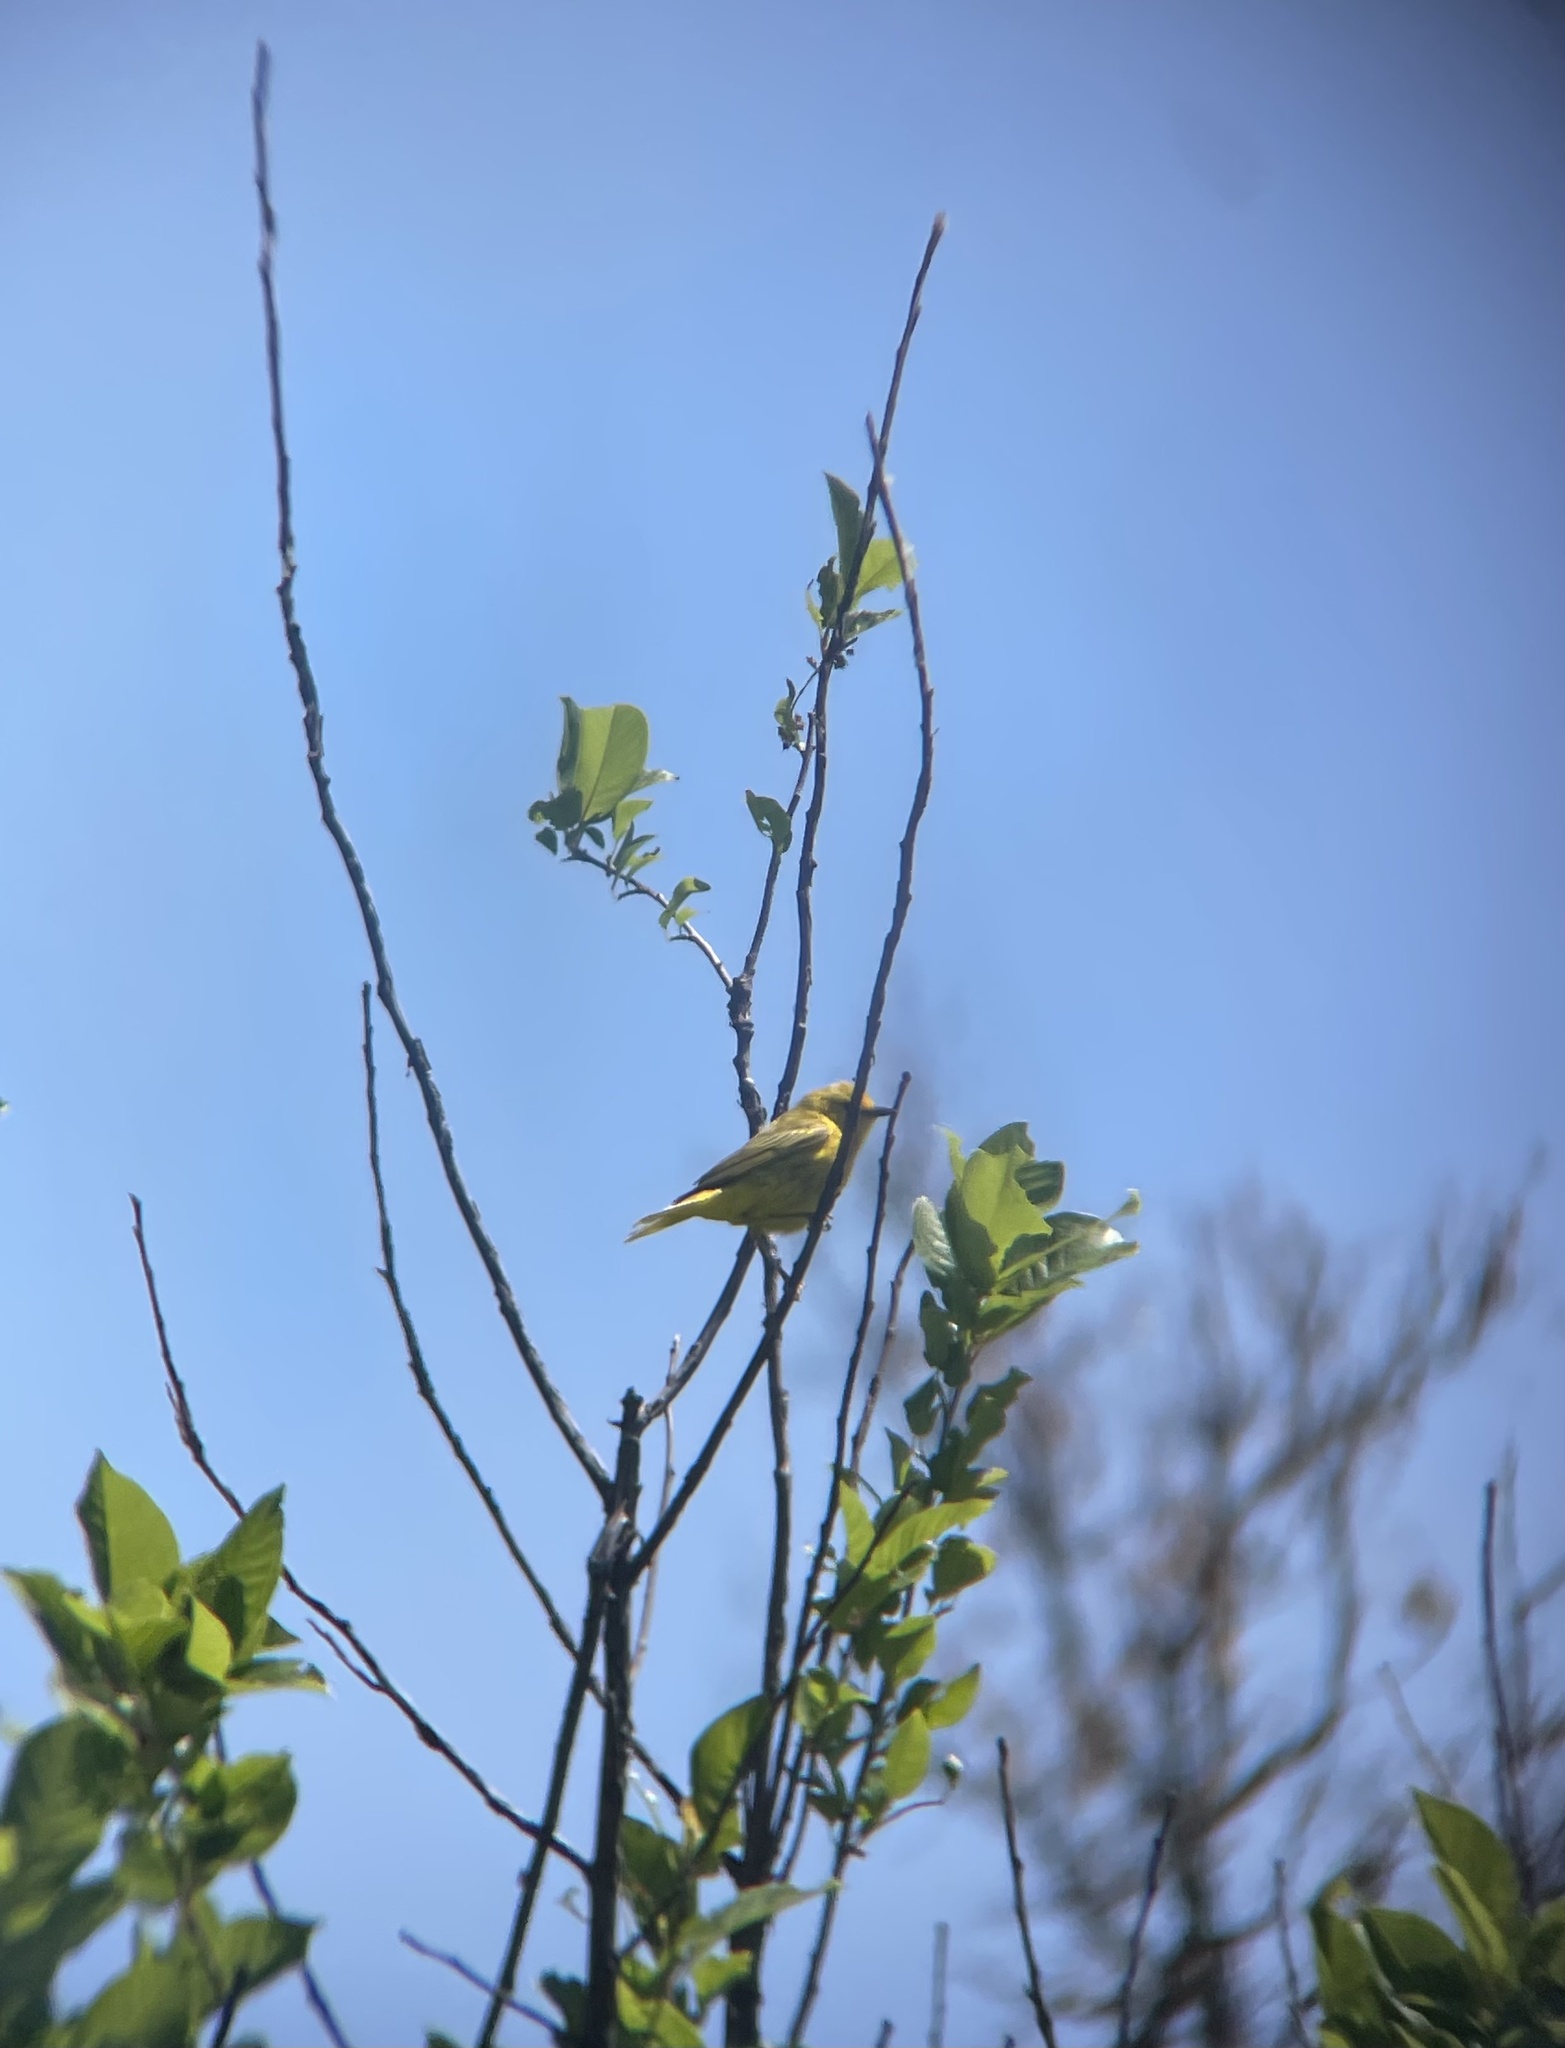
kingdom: Animalia
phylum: Chordata
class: Aves
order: Passeriformes
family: Parulidae
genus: Setophaga
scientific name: Setophaga petechia
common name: Yellow warbler
